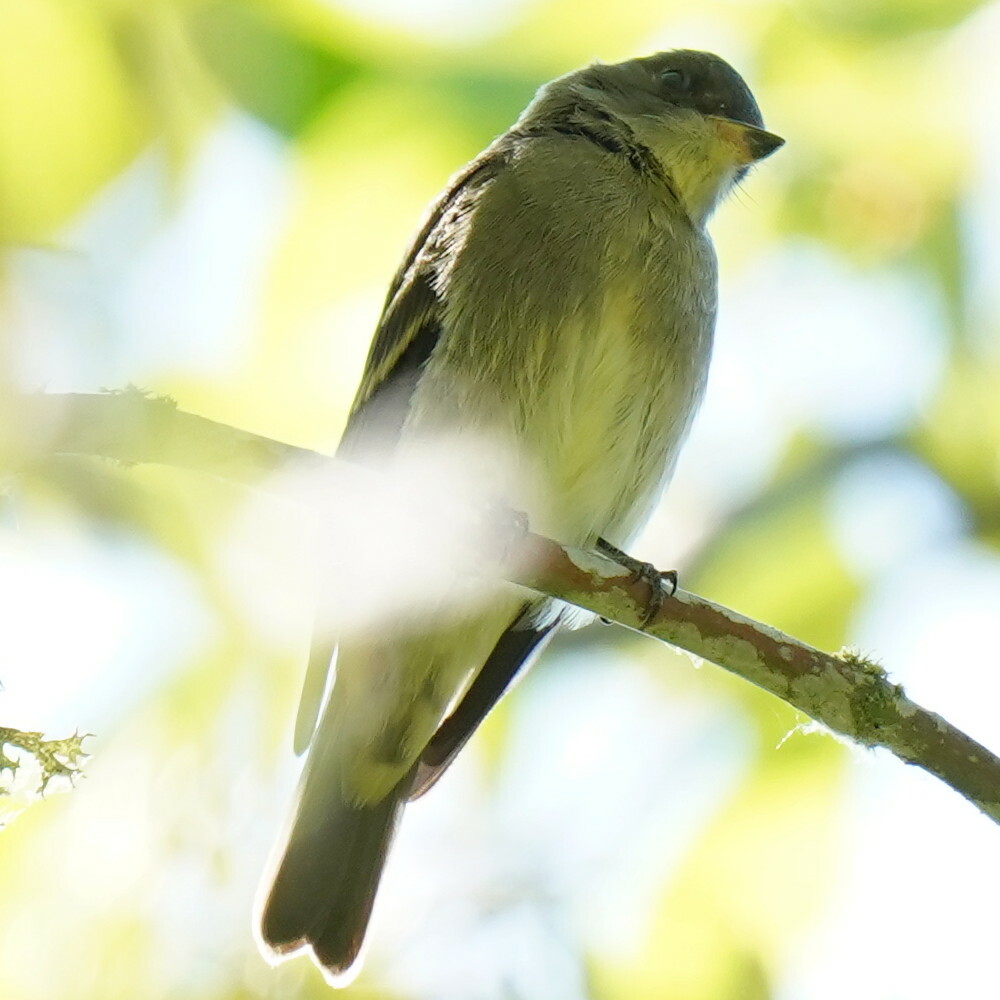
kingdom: Animalia
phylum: Chordata
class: Aves
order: Passeriformes
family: Tyrannidae
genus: Contopus
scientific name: Contopus sordidulus
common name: Western wood-pewee
